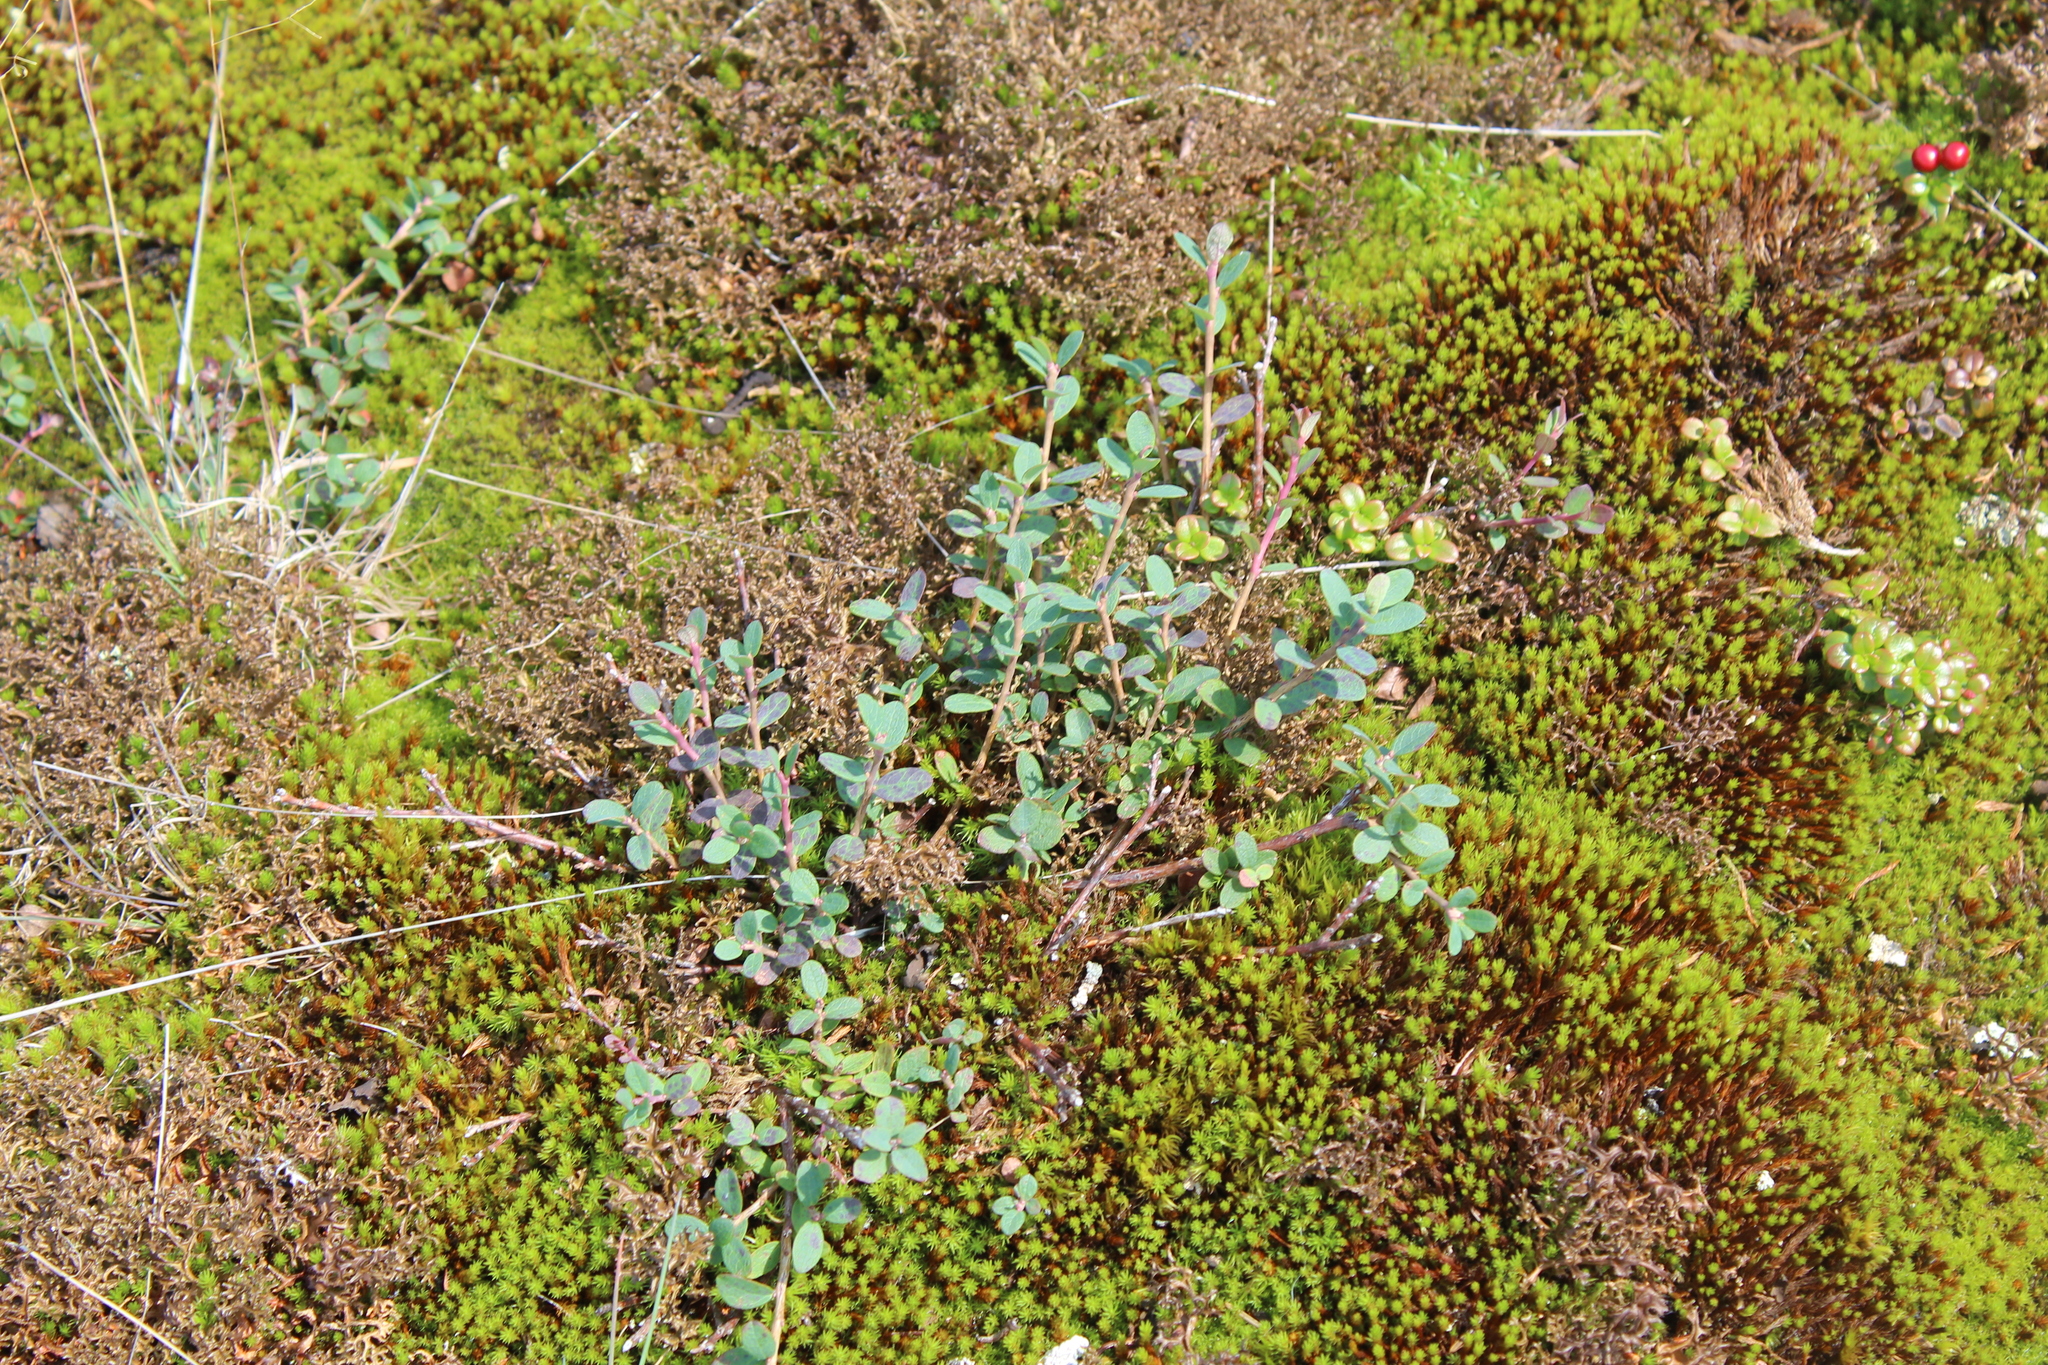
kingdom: Plantae
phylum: Tracheophyta
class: Magnoliopsida
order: Ericales
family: Ericaceae
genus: Vaccinium
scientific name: Vaccinium uliginosum
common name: Bog bilberry
